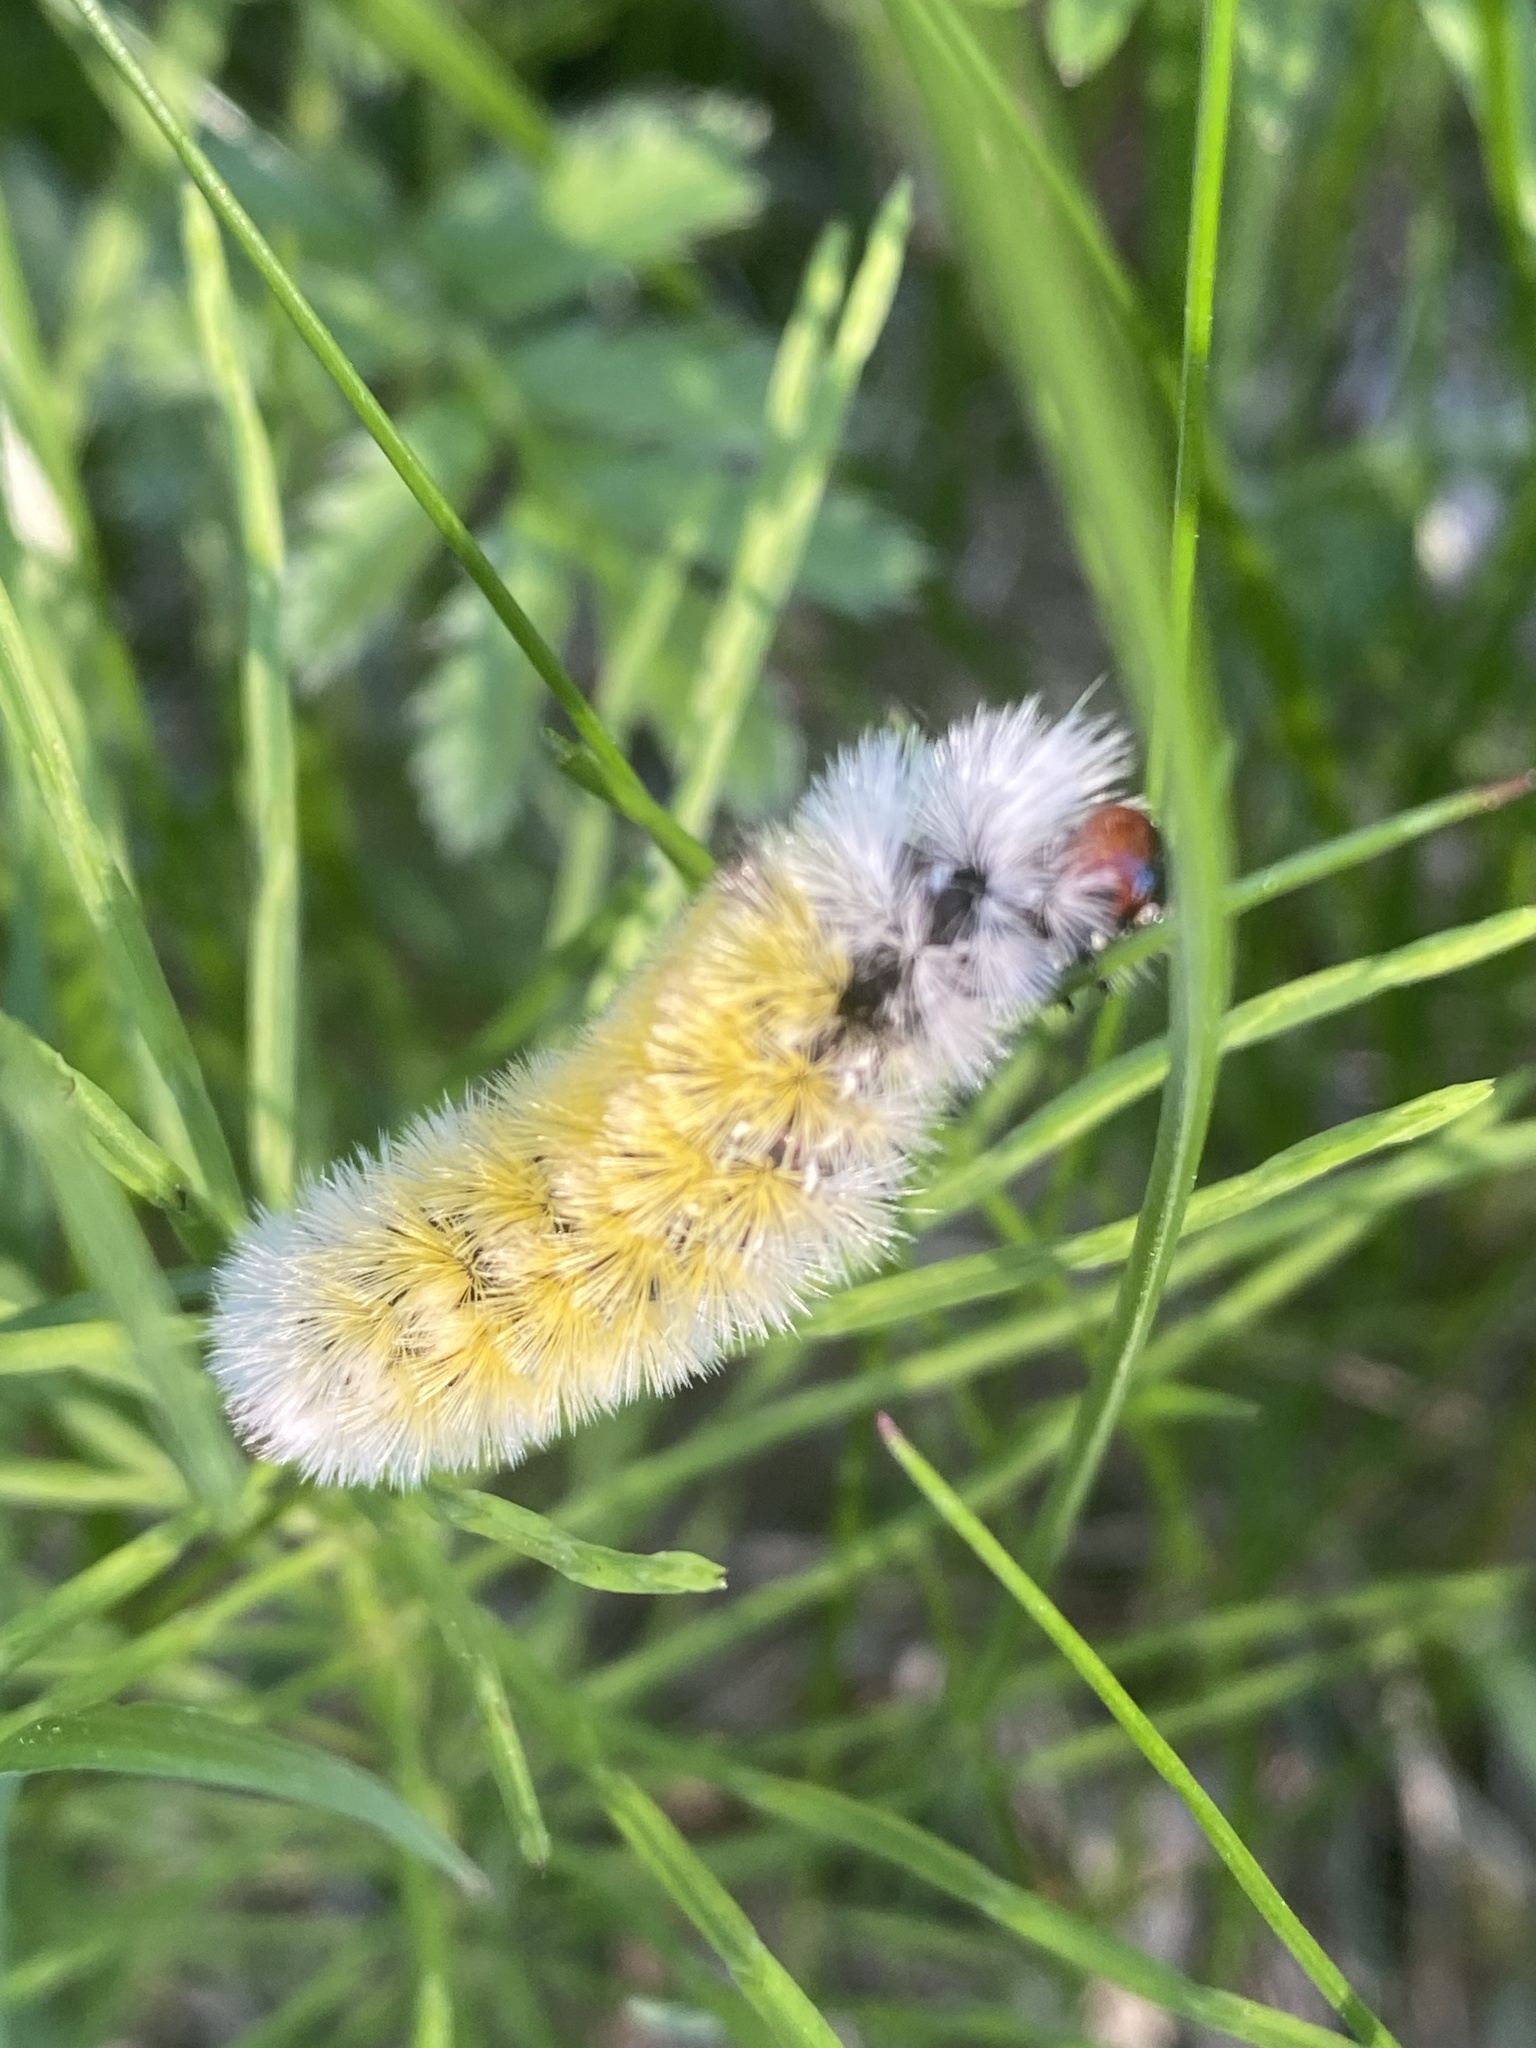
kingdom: Animalia
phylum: Arthropoda
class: Insecta
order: Lepidoptera
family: Erebidae
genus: Ctenucha
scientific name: Ctenucha virginica
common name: Virginia ctenucha moth
